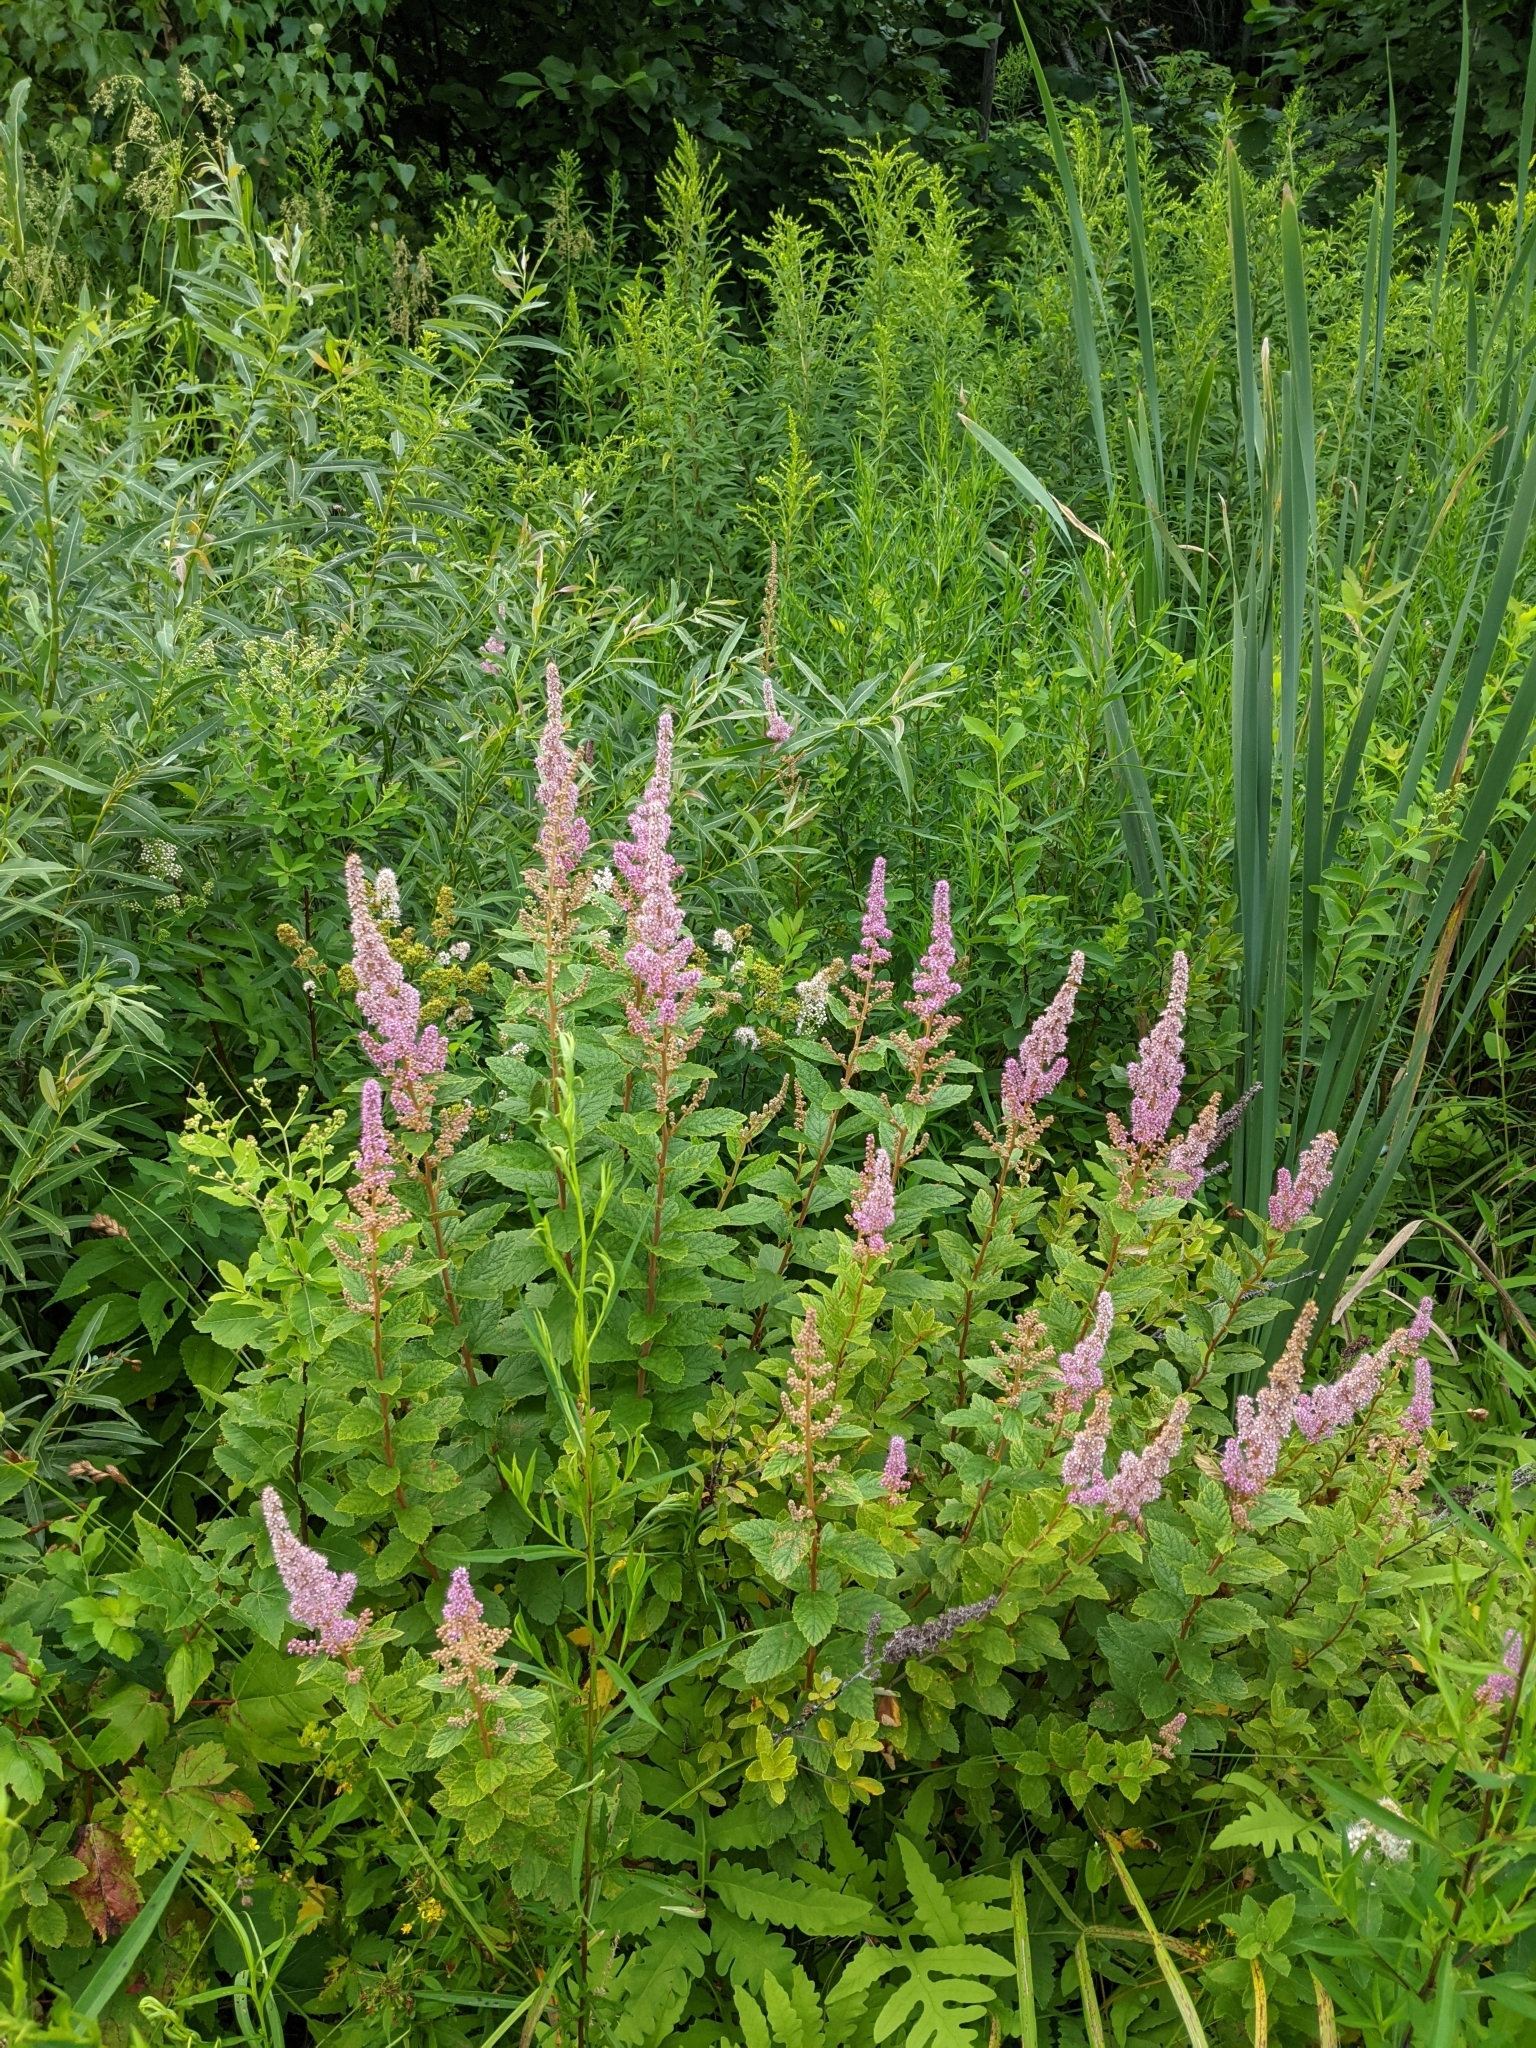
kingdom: Plantae
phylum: Tracheophyta
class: Magnoliopsida
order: Rosales
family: Rosaceae
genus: Spiraea
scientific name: Spiraea tomentosa
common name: Hardhack
